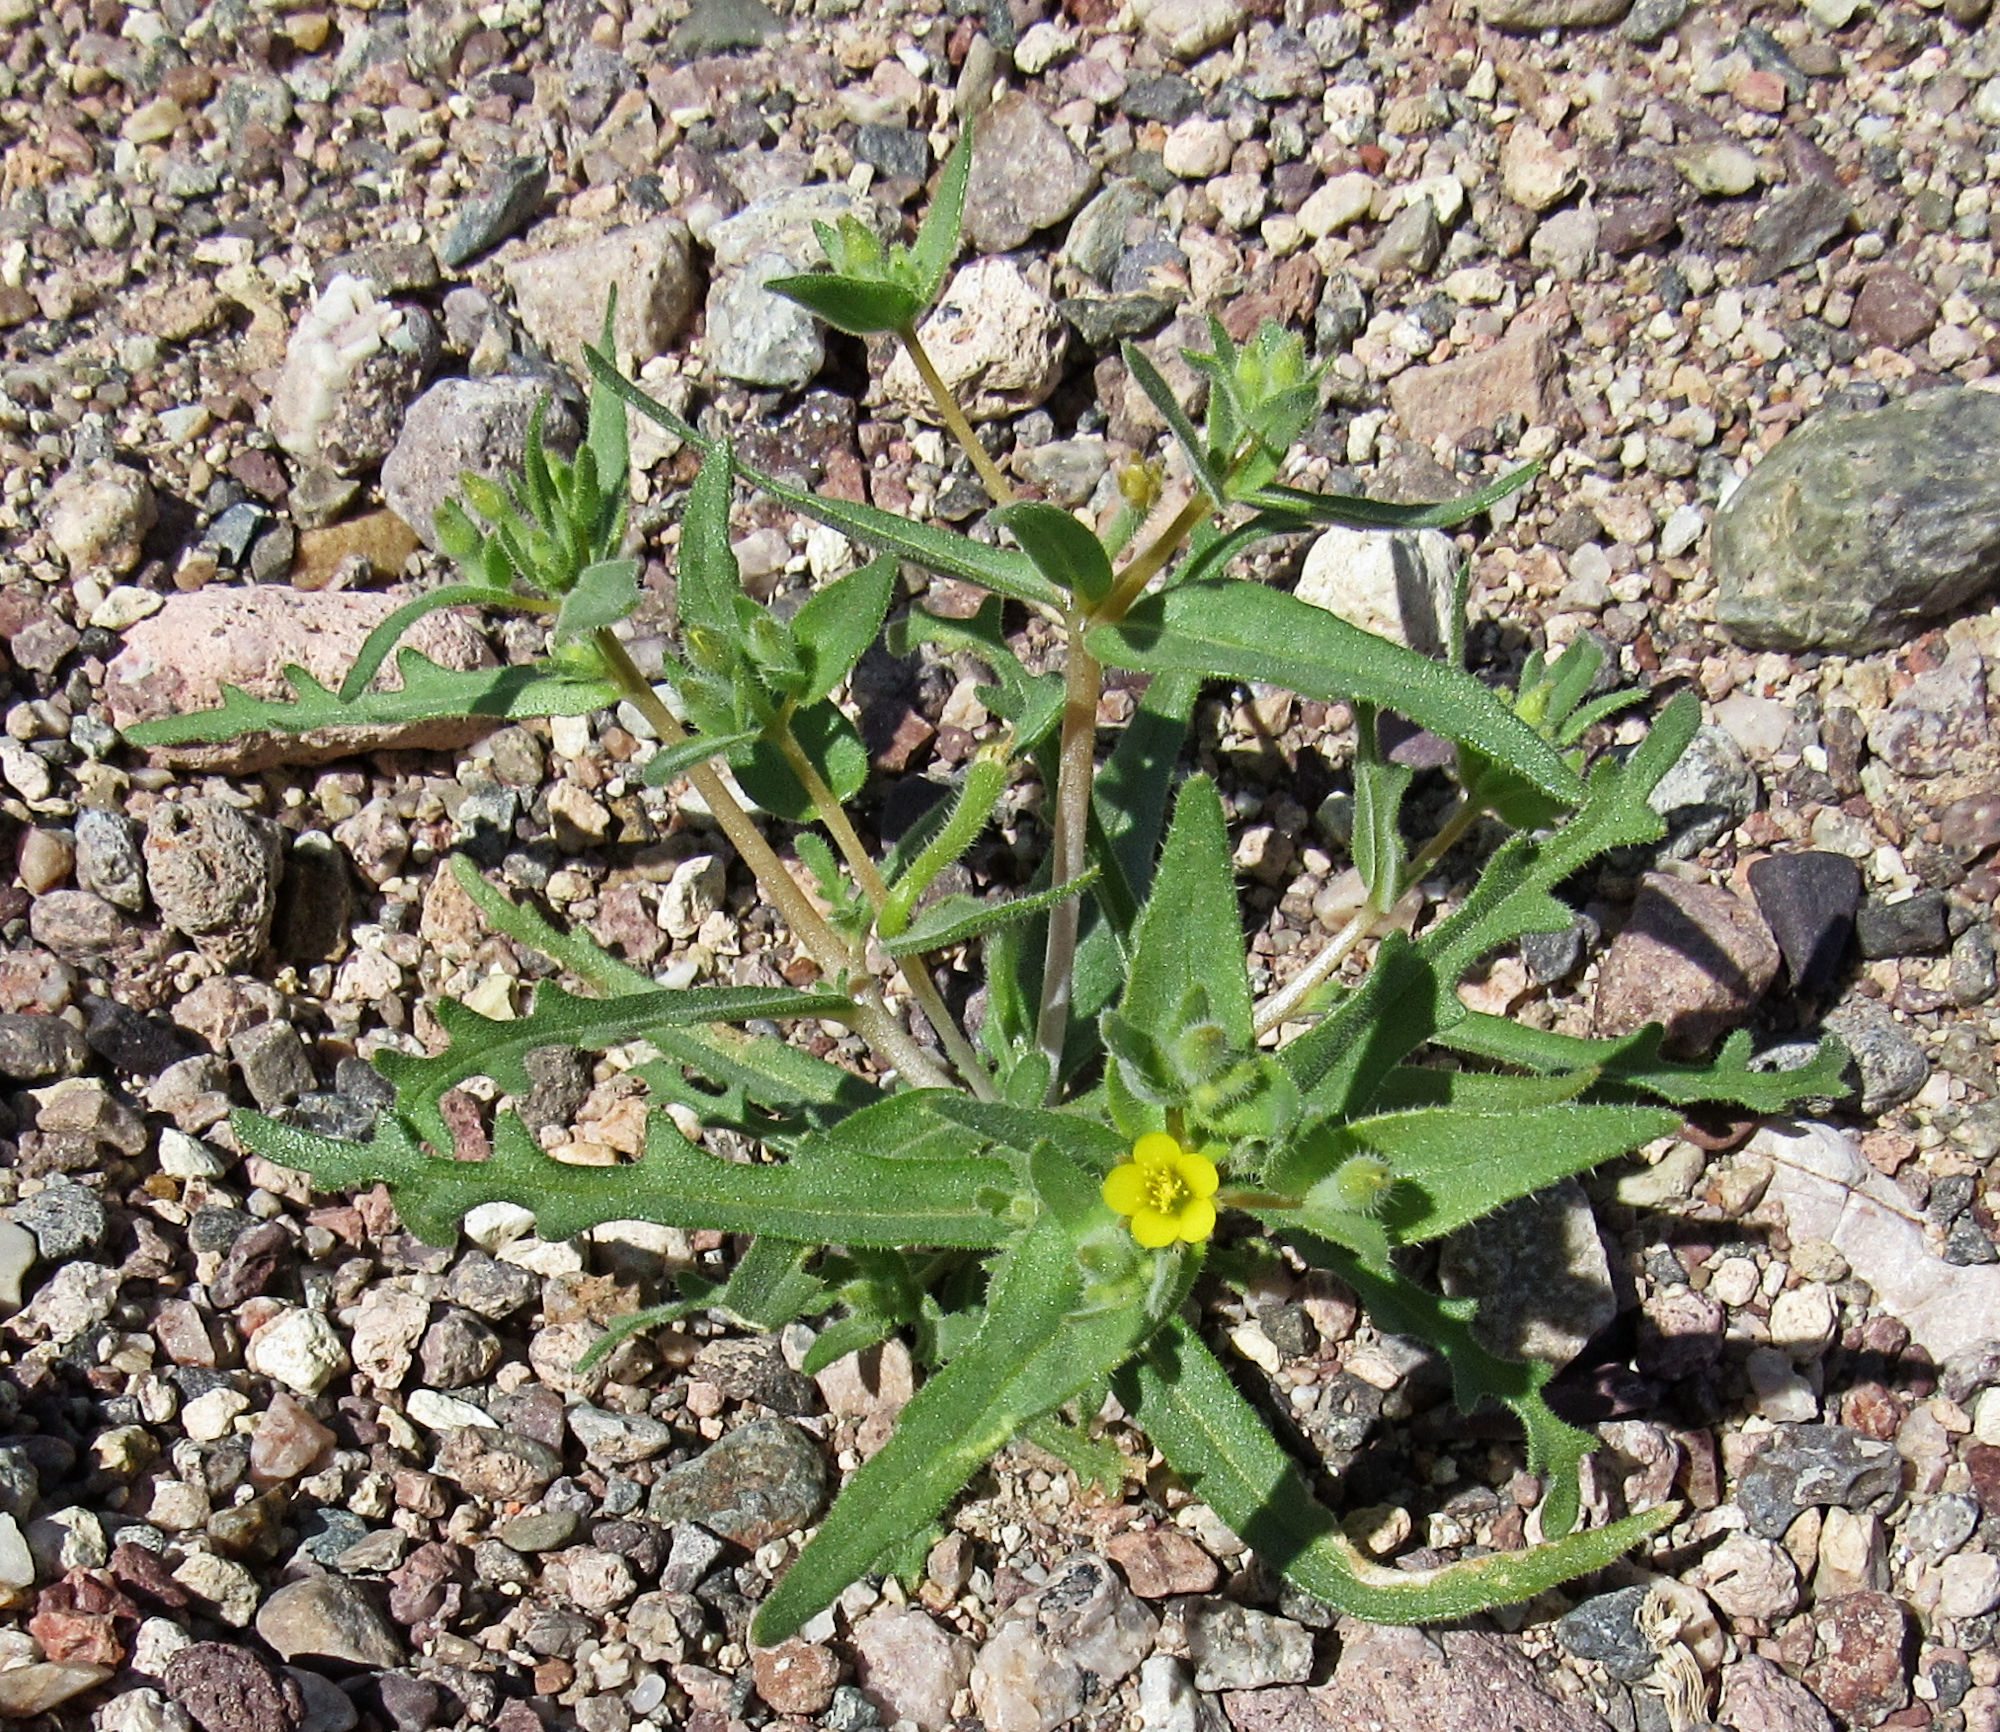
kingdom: Plantae
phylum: Tracheophyta
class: Magnoliopsida
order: Cornales
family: Loasaceae
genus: Mentzelia
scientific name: Mentzelia albicaulis
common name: White-stem blazingstar
